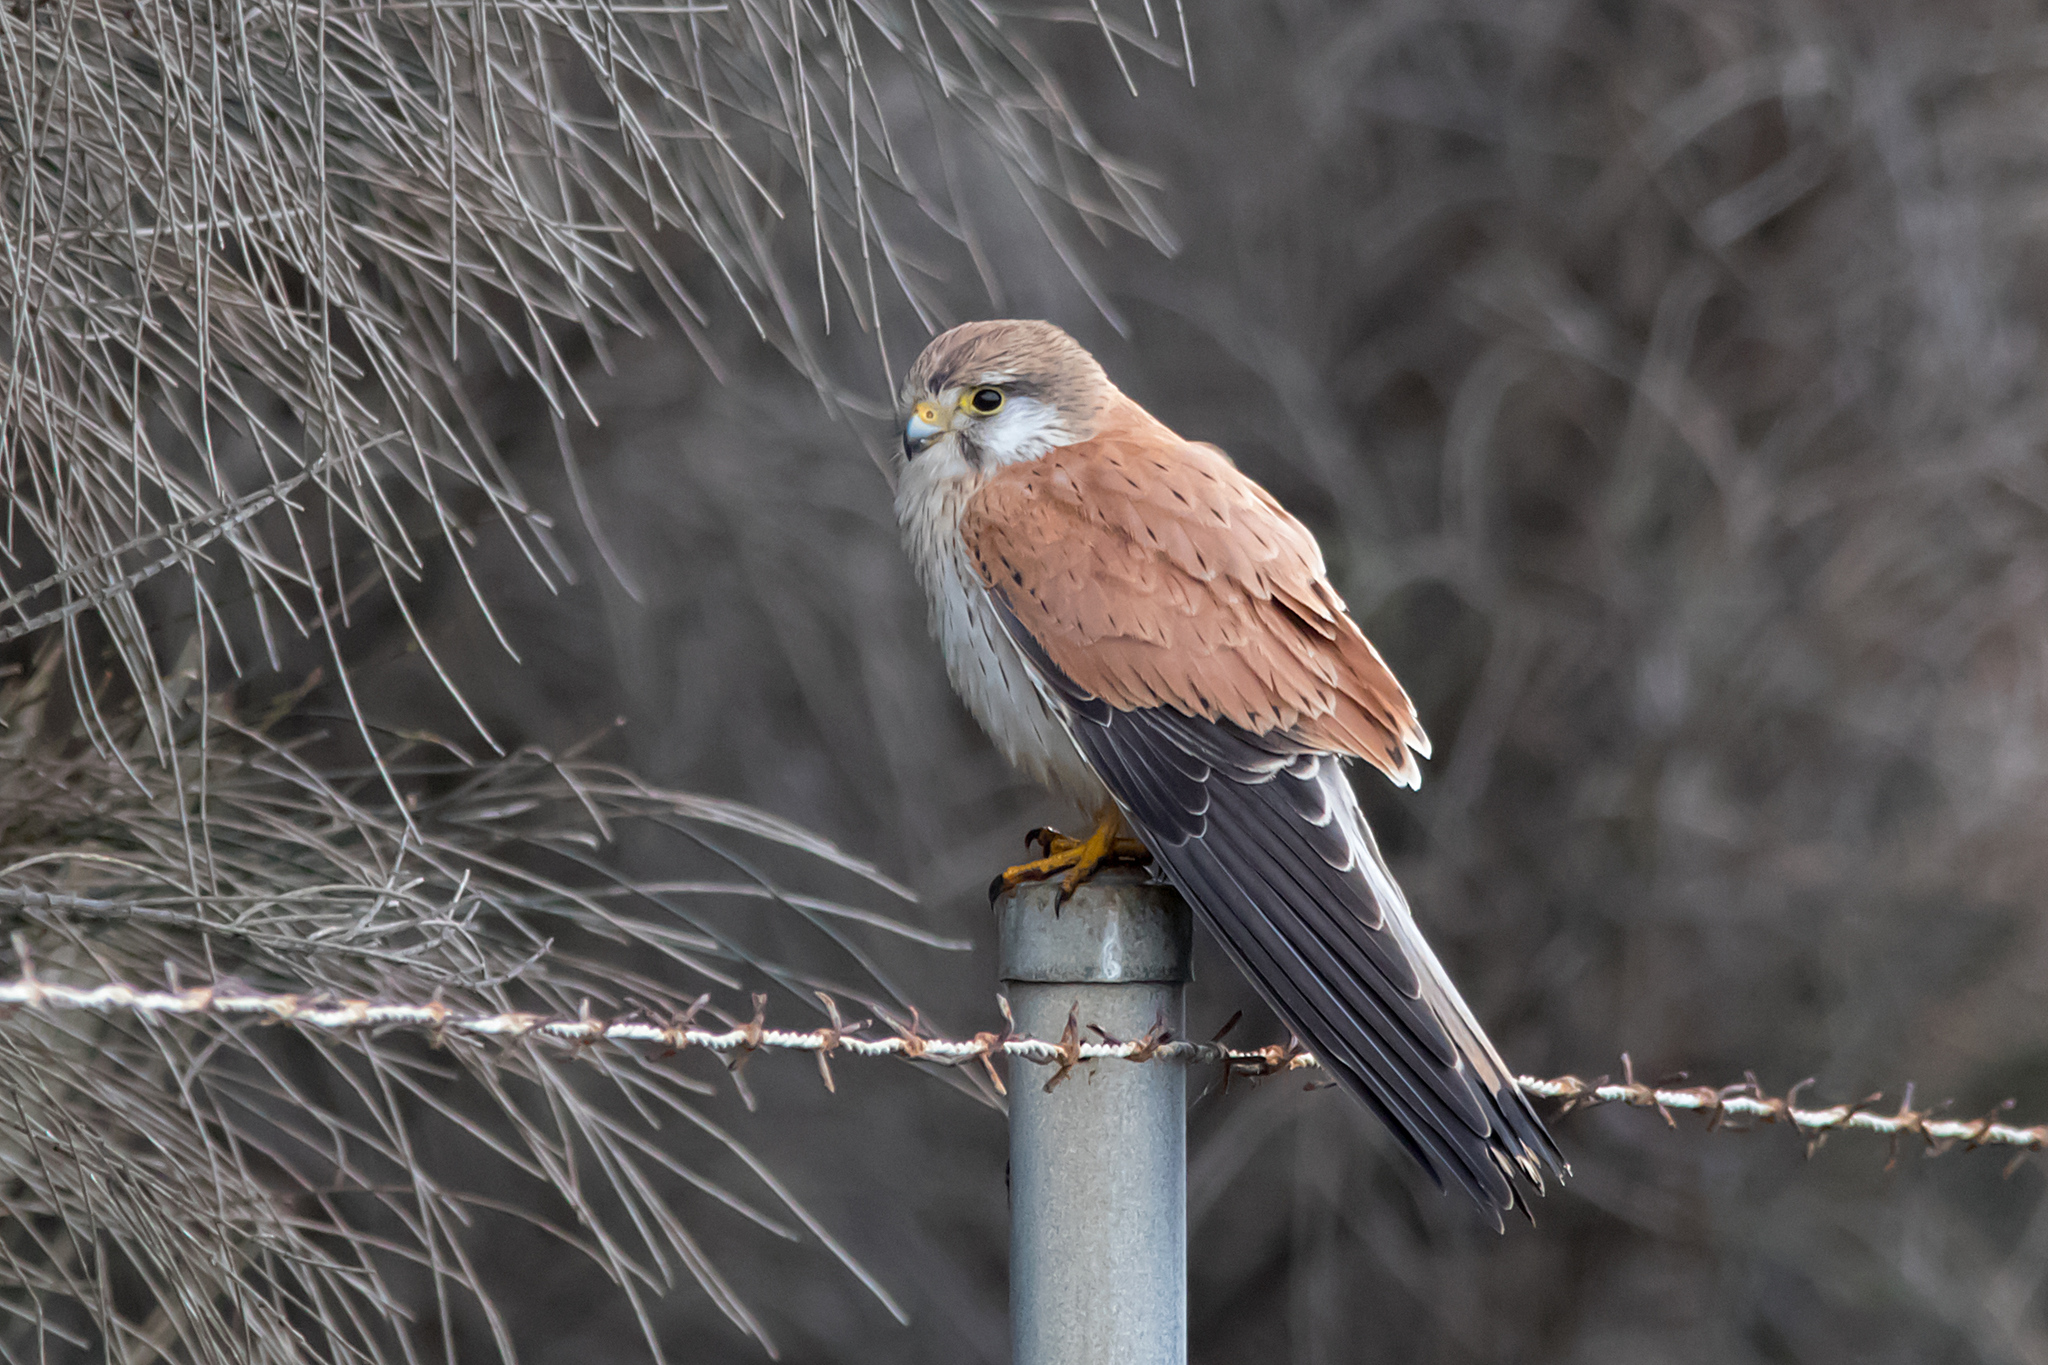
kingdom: Animalia
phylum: Chordata
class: Aves
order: Falconiformes
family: Falconidae
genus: Falco
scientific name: Falco cenchroides
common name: Nankeen kestrel
